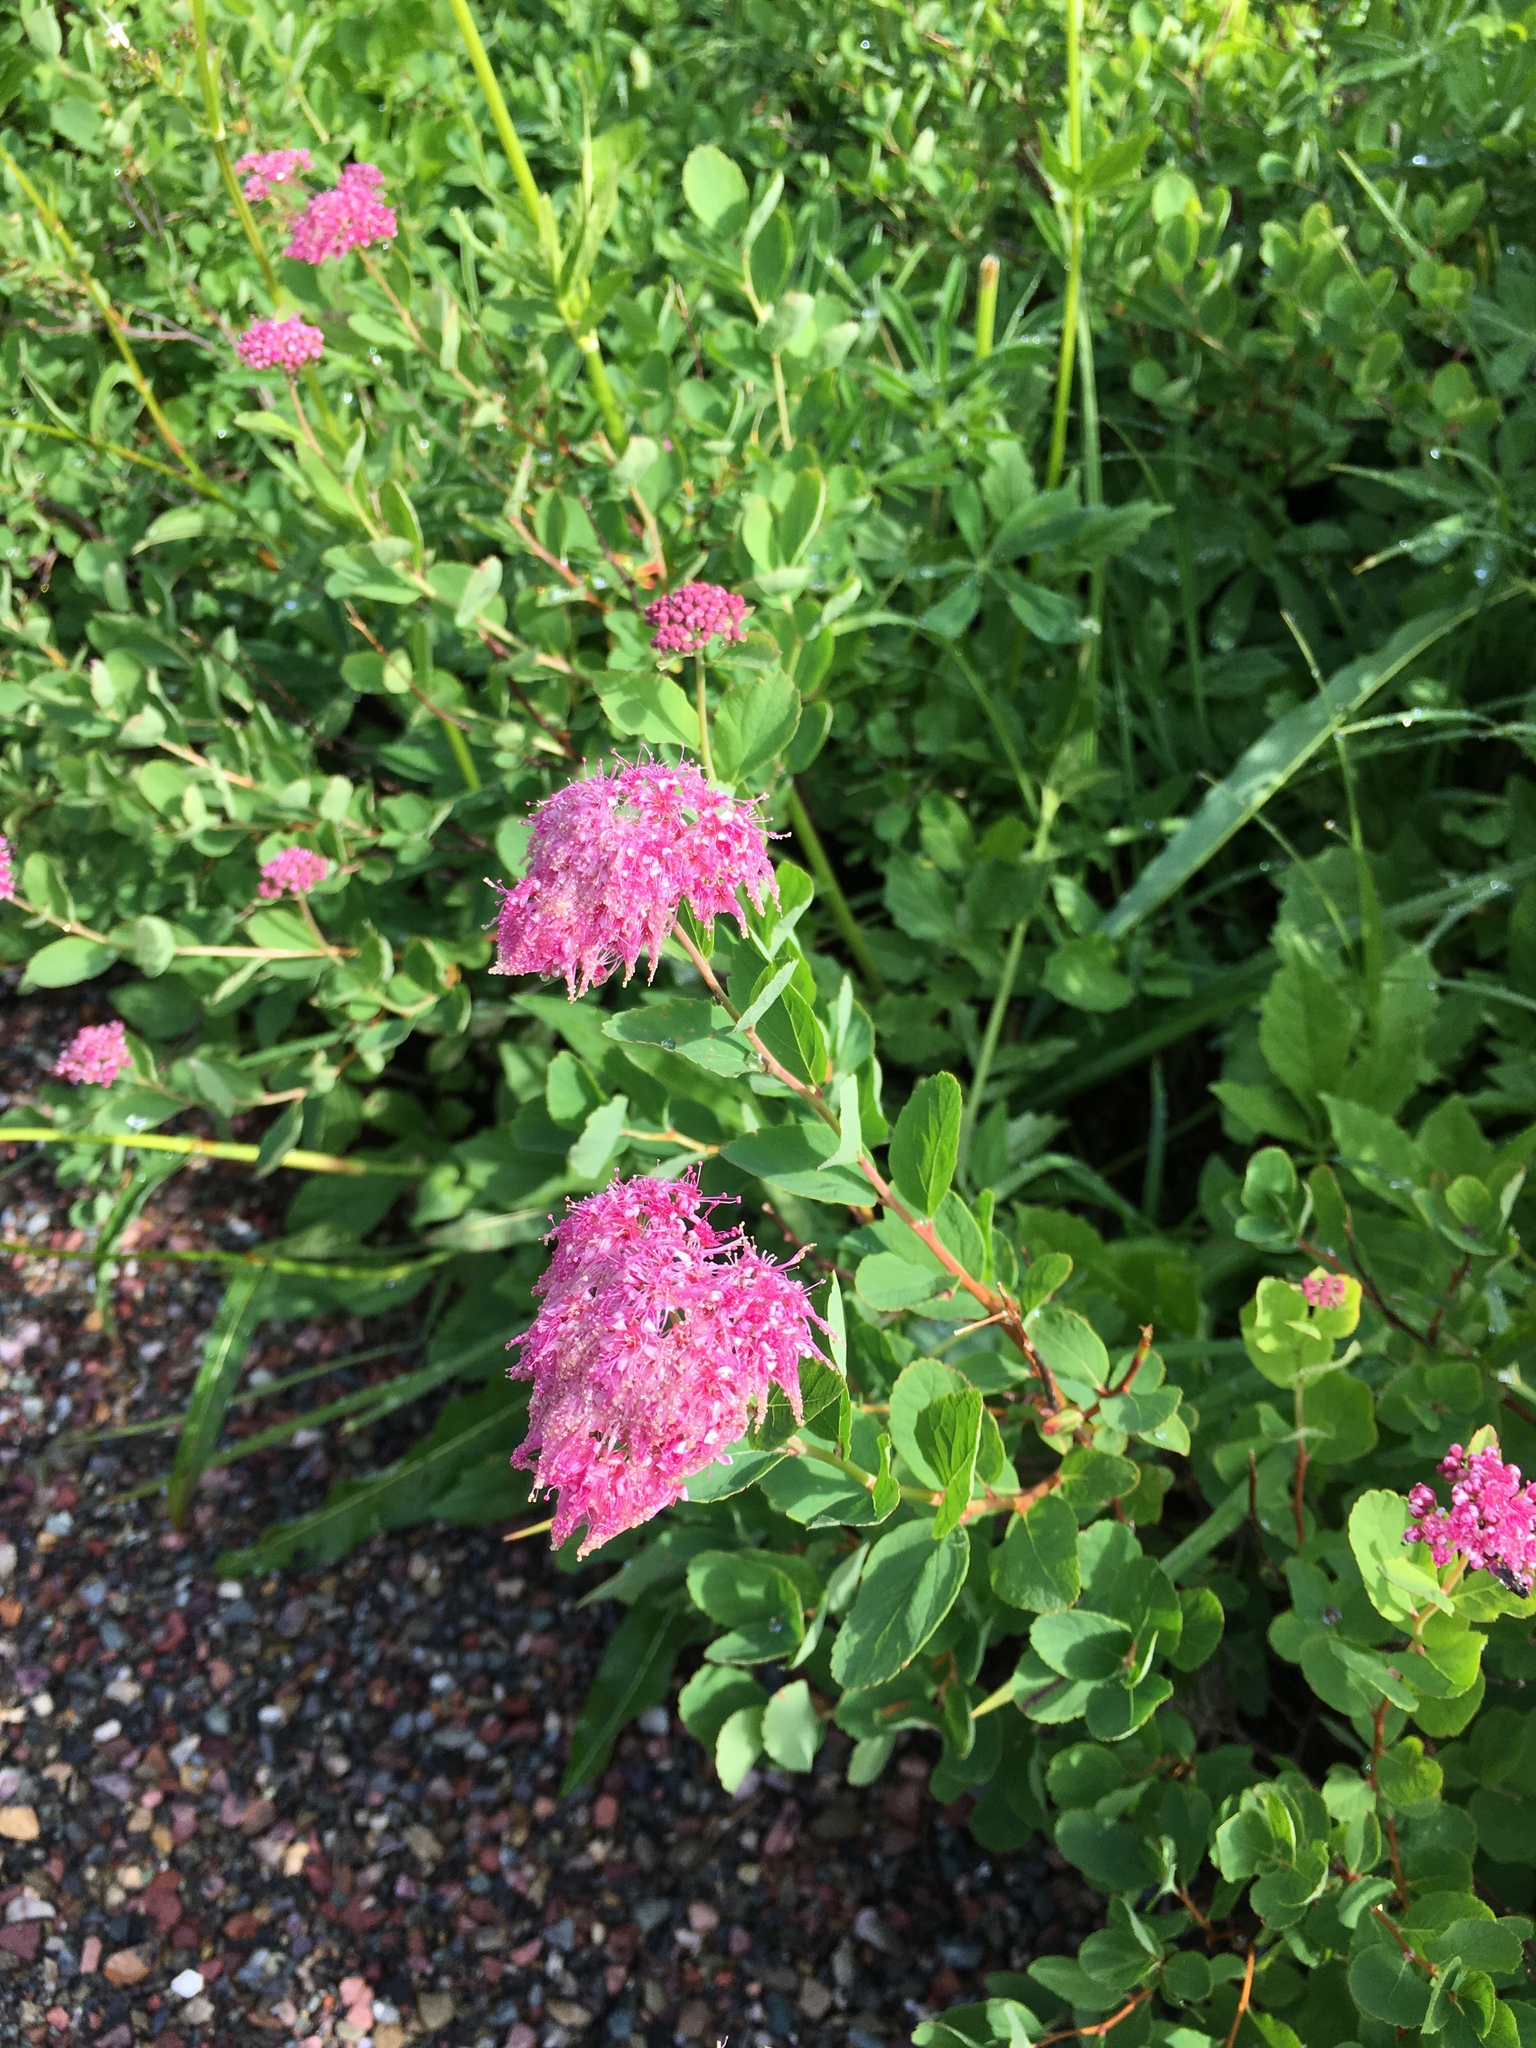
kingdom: Plantae
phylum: Tracheophyta
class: Magnoliopsida
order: Rosales
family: Rosaceae
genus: Spiraea
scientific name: Spiraea splendens
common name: Subalpine meadowsweet
